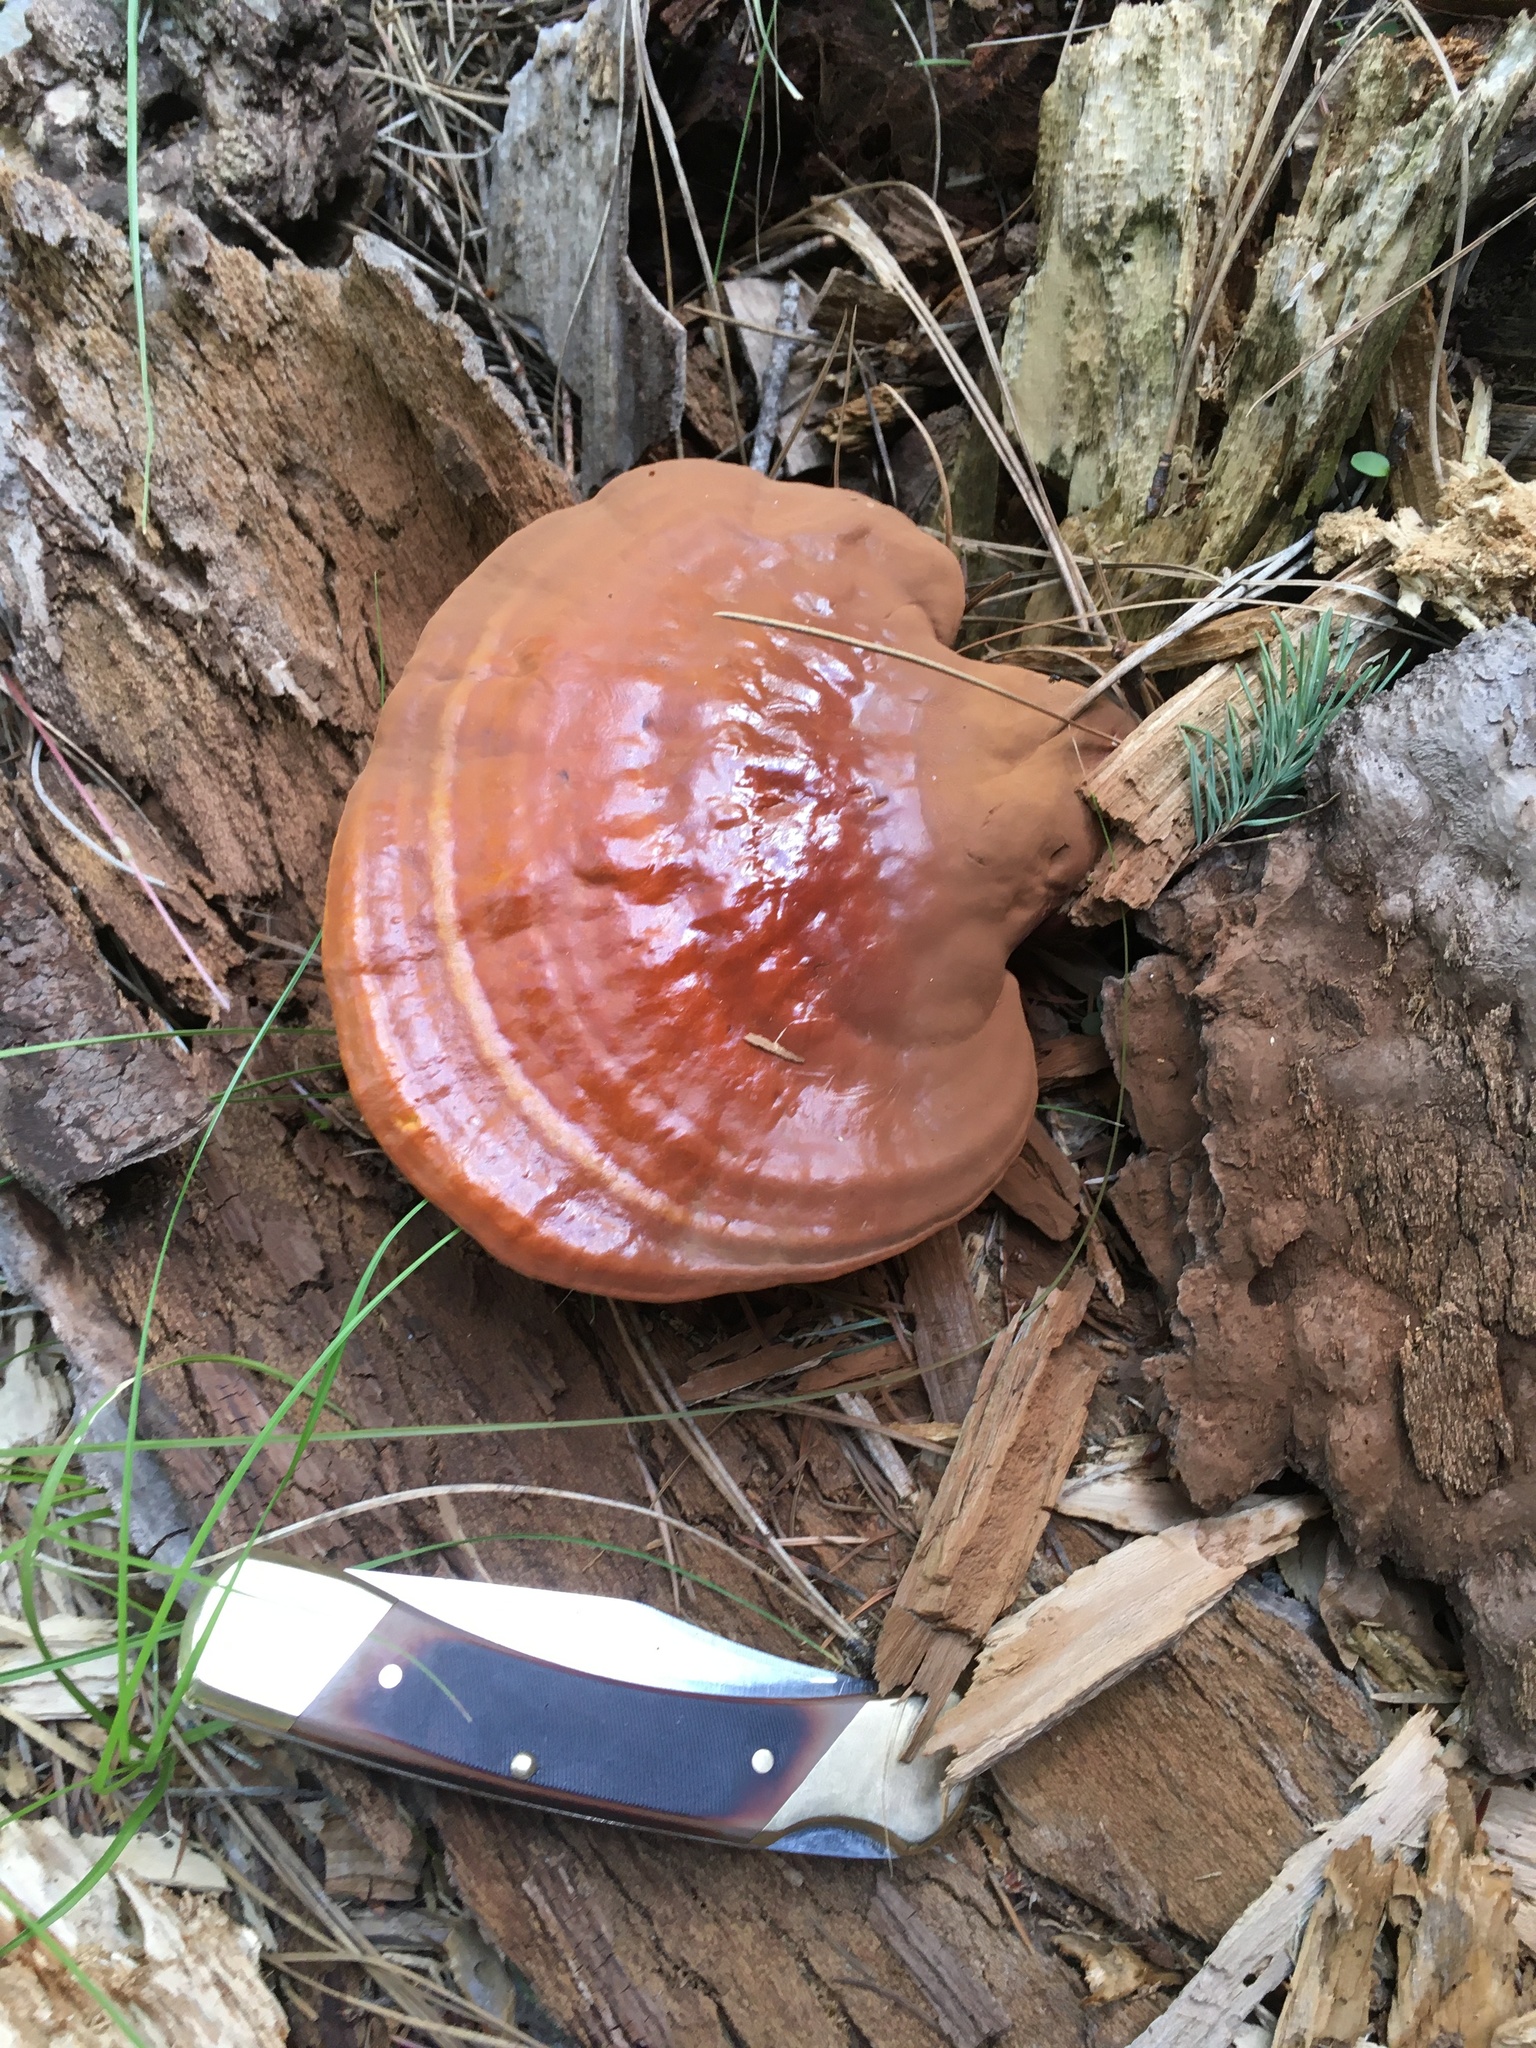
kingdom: Fungi
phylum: Basidiomycota
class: Agaricomycetes
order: Polyporales
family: Polyporaceae
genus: Ganoderma
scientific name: Ganoderma tsugae
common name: Hemlock varnish shelf
